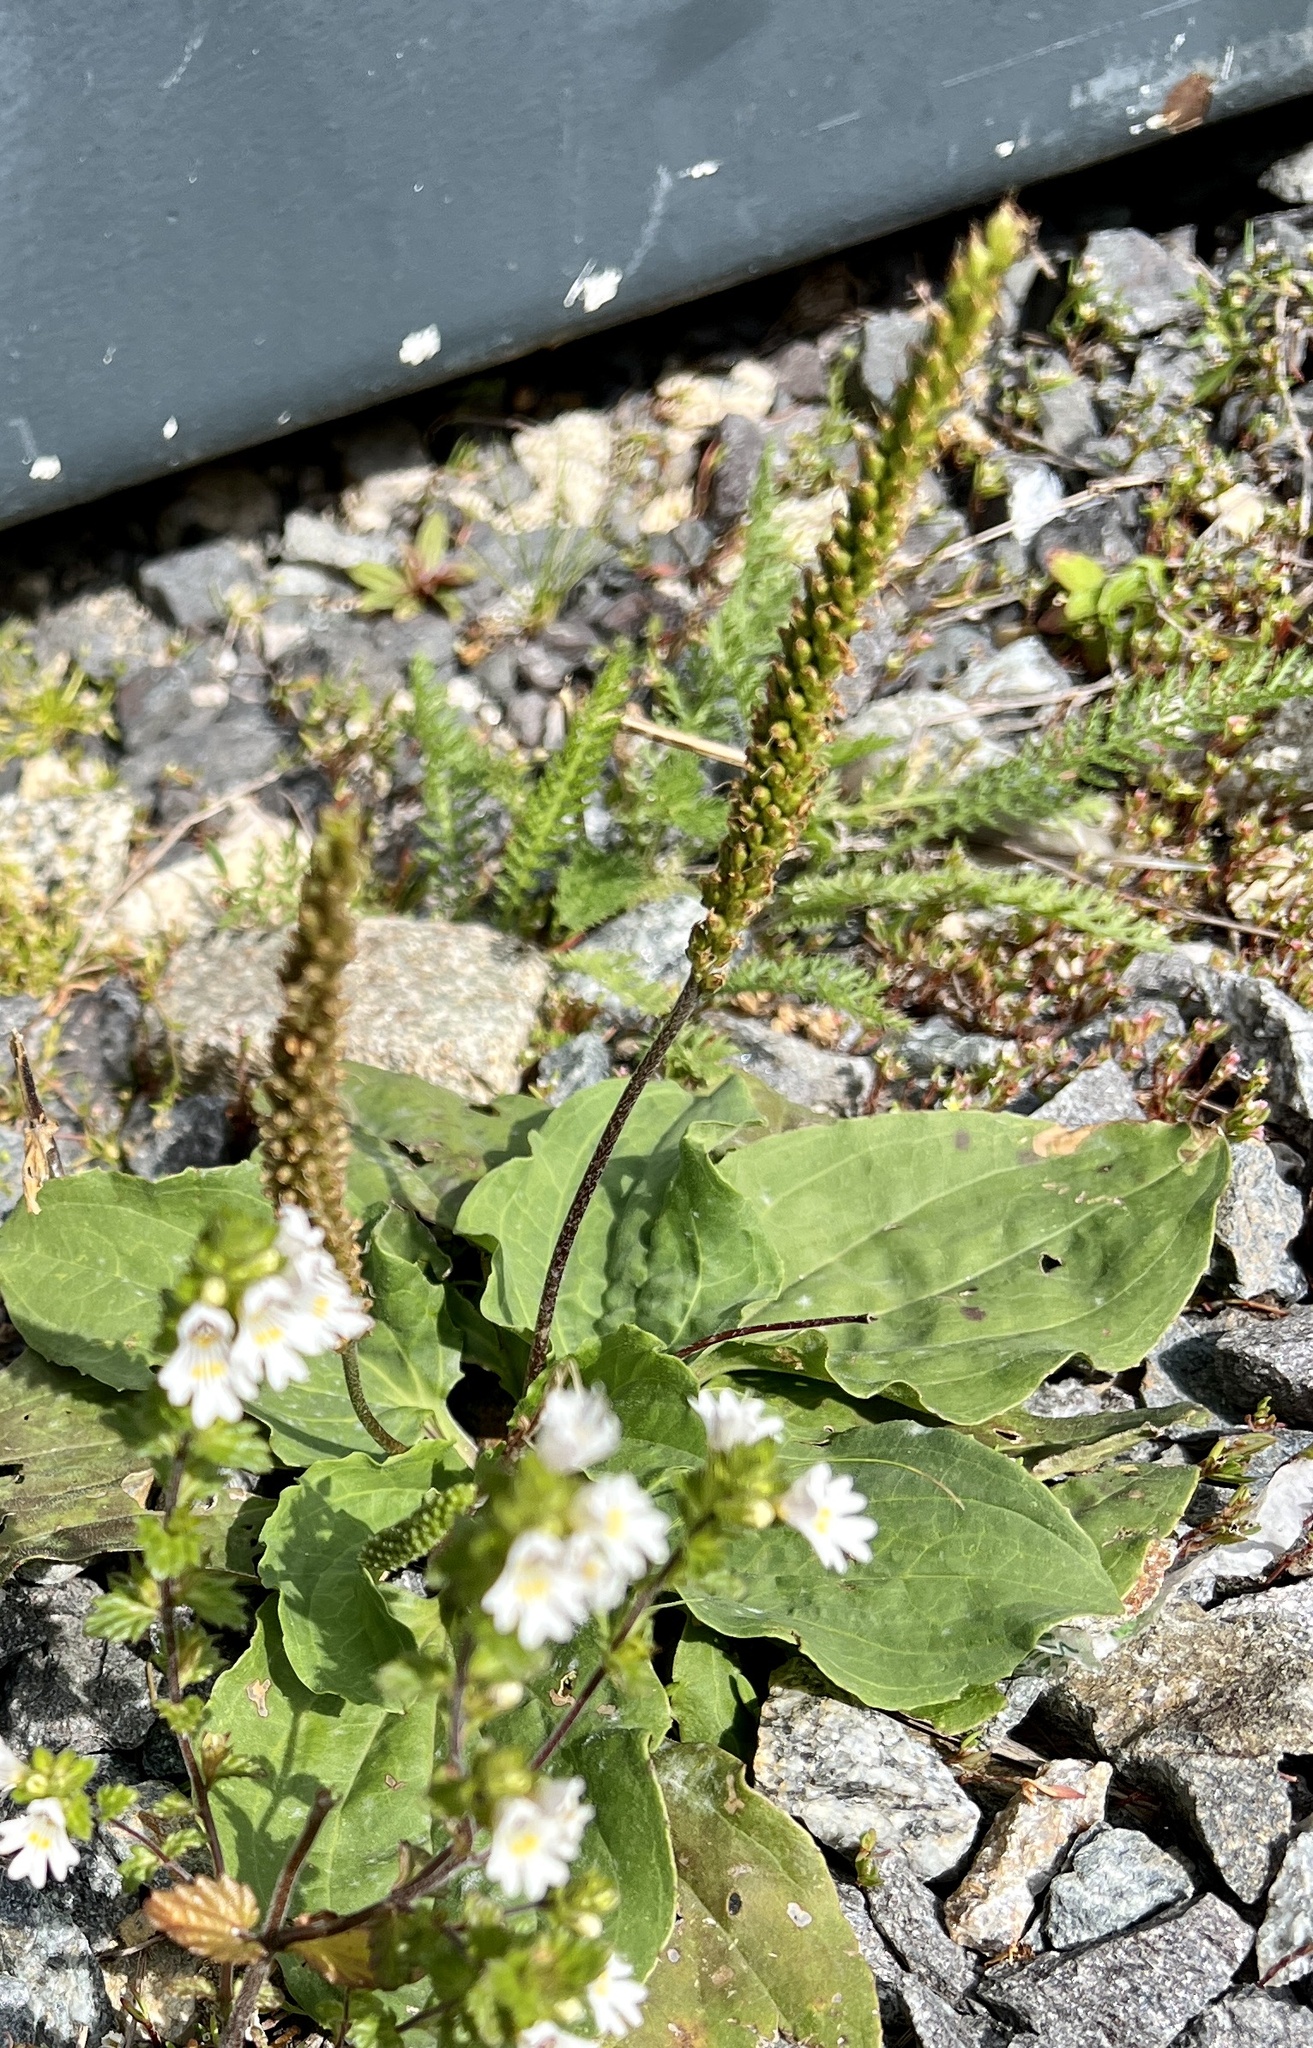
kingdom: Plantae
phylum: Tracheophyta
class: Magnoliopsida
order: Lamiales
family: Plantaginaceae
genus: Plantago
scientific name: Plantago major
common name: Common plantain
